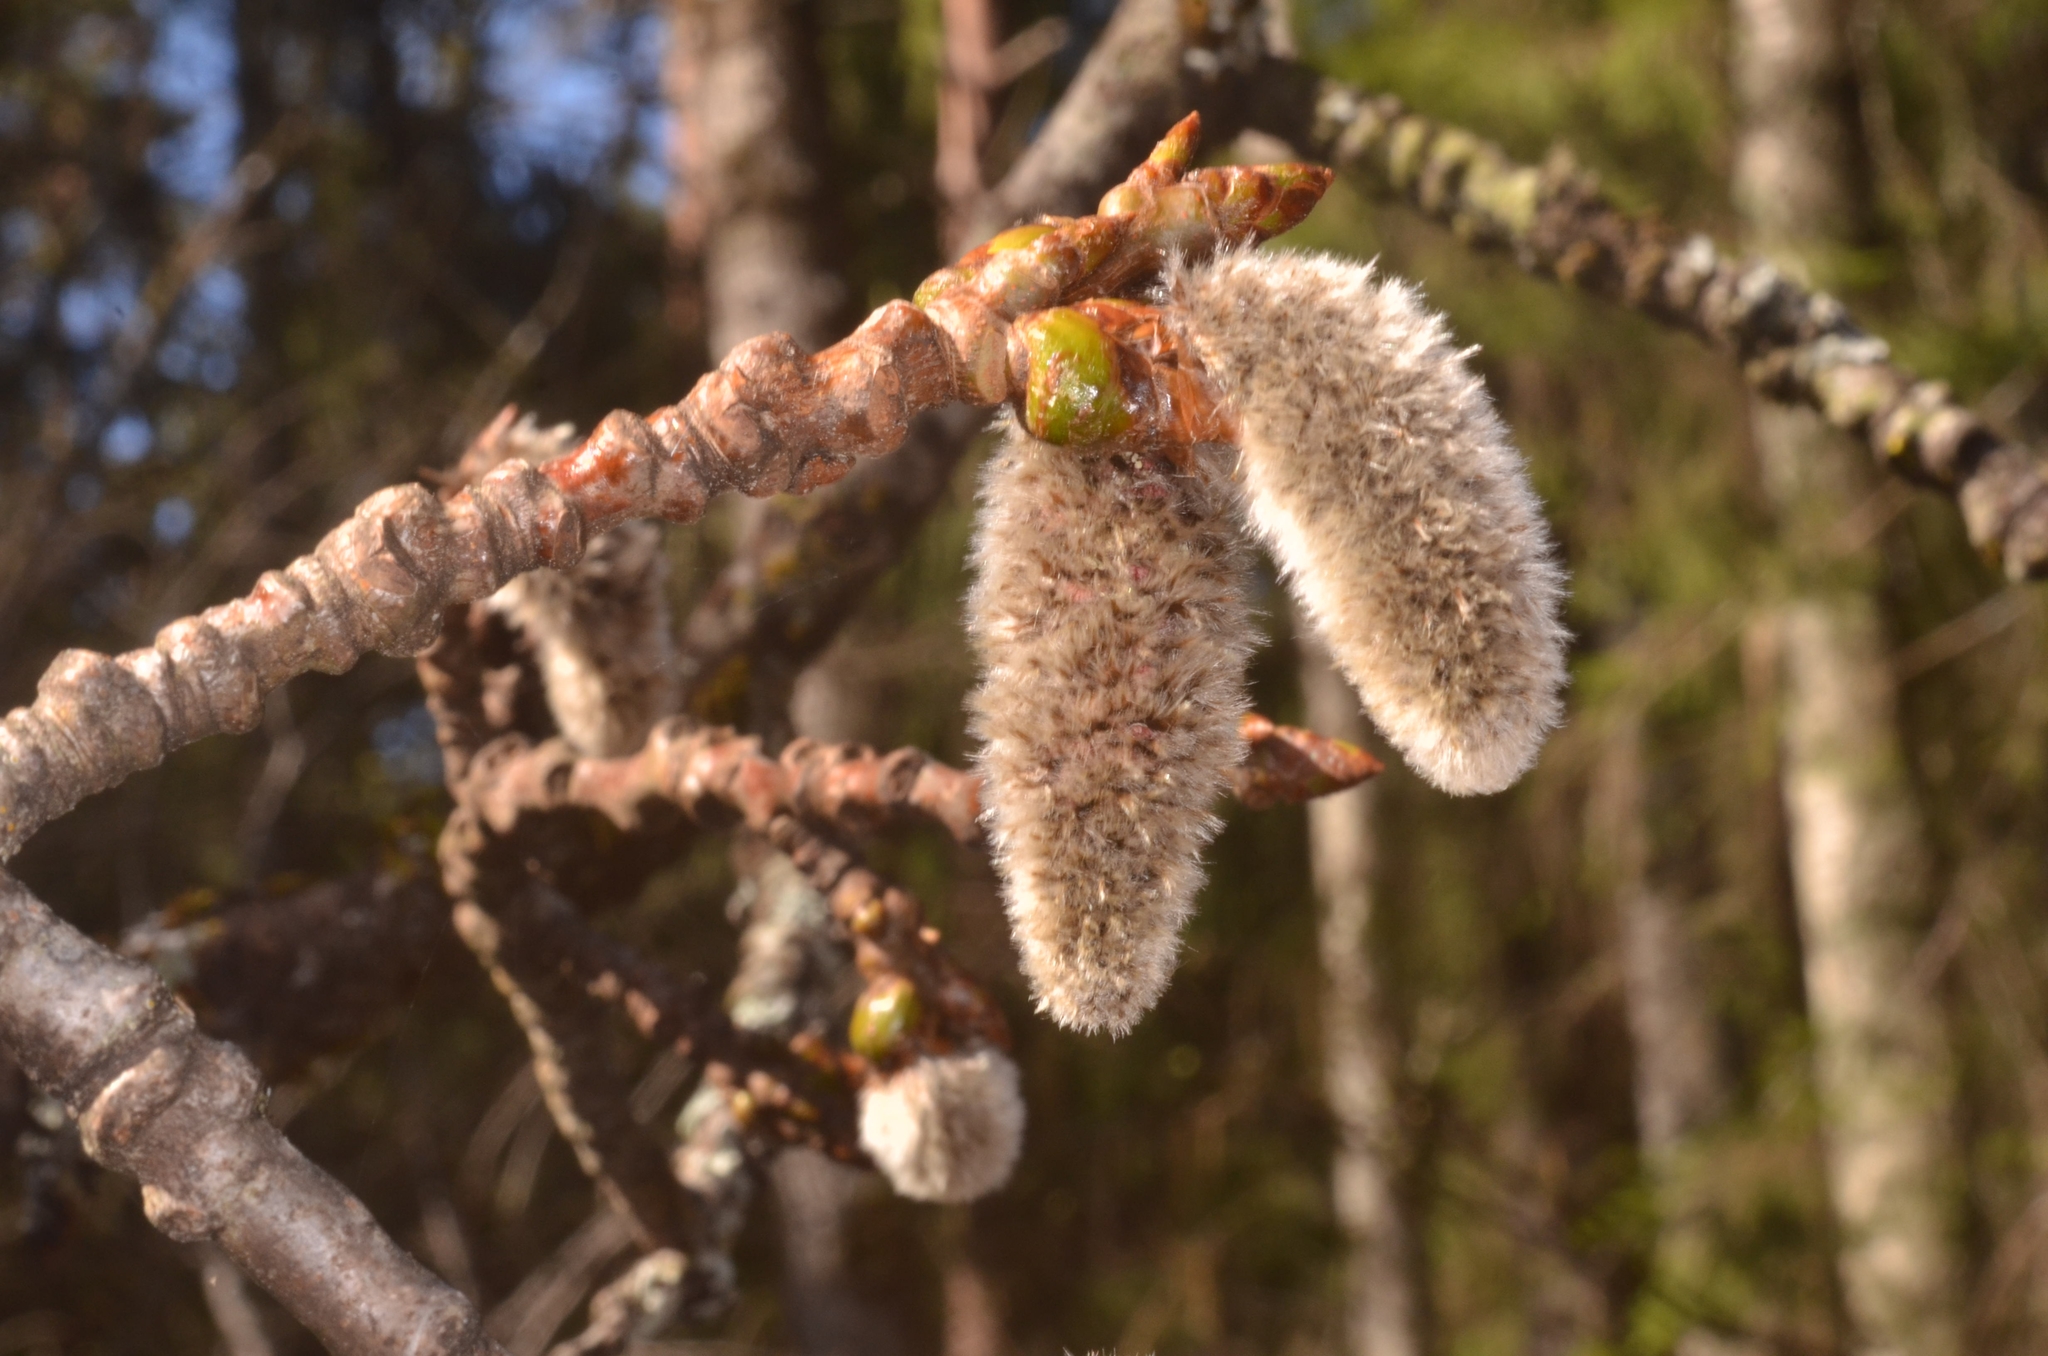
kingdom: Plantae
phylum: Tracheophyta
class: Magnoliopsida
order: Malpighiales
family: Salicaceae
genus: Populus
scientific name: Populus tremula
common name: European aspen
